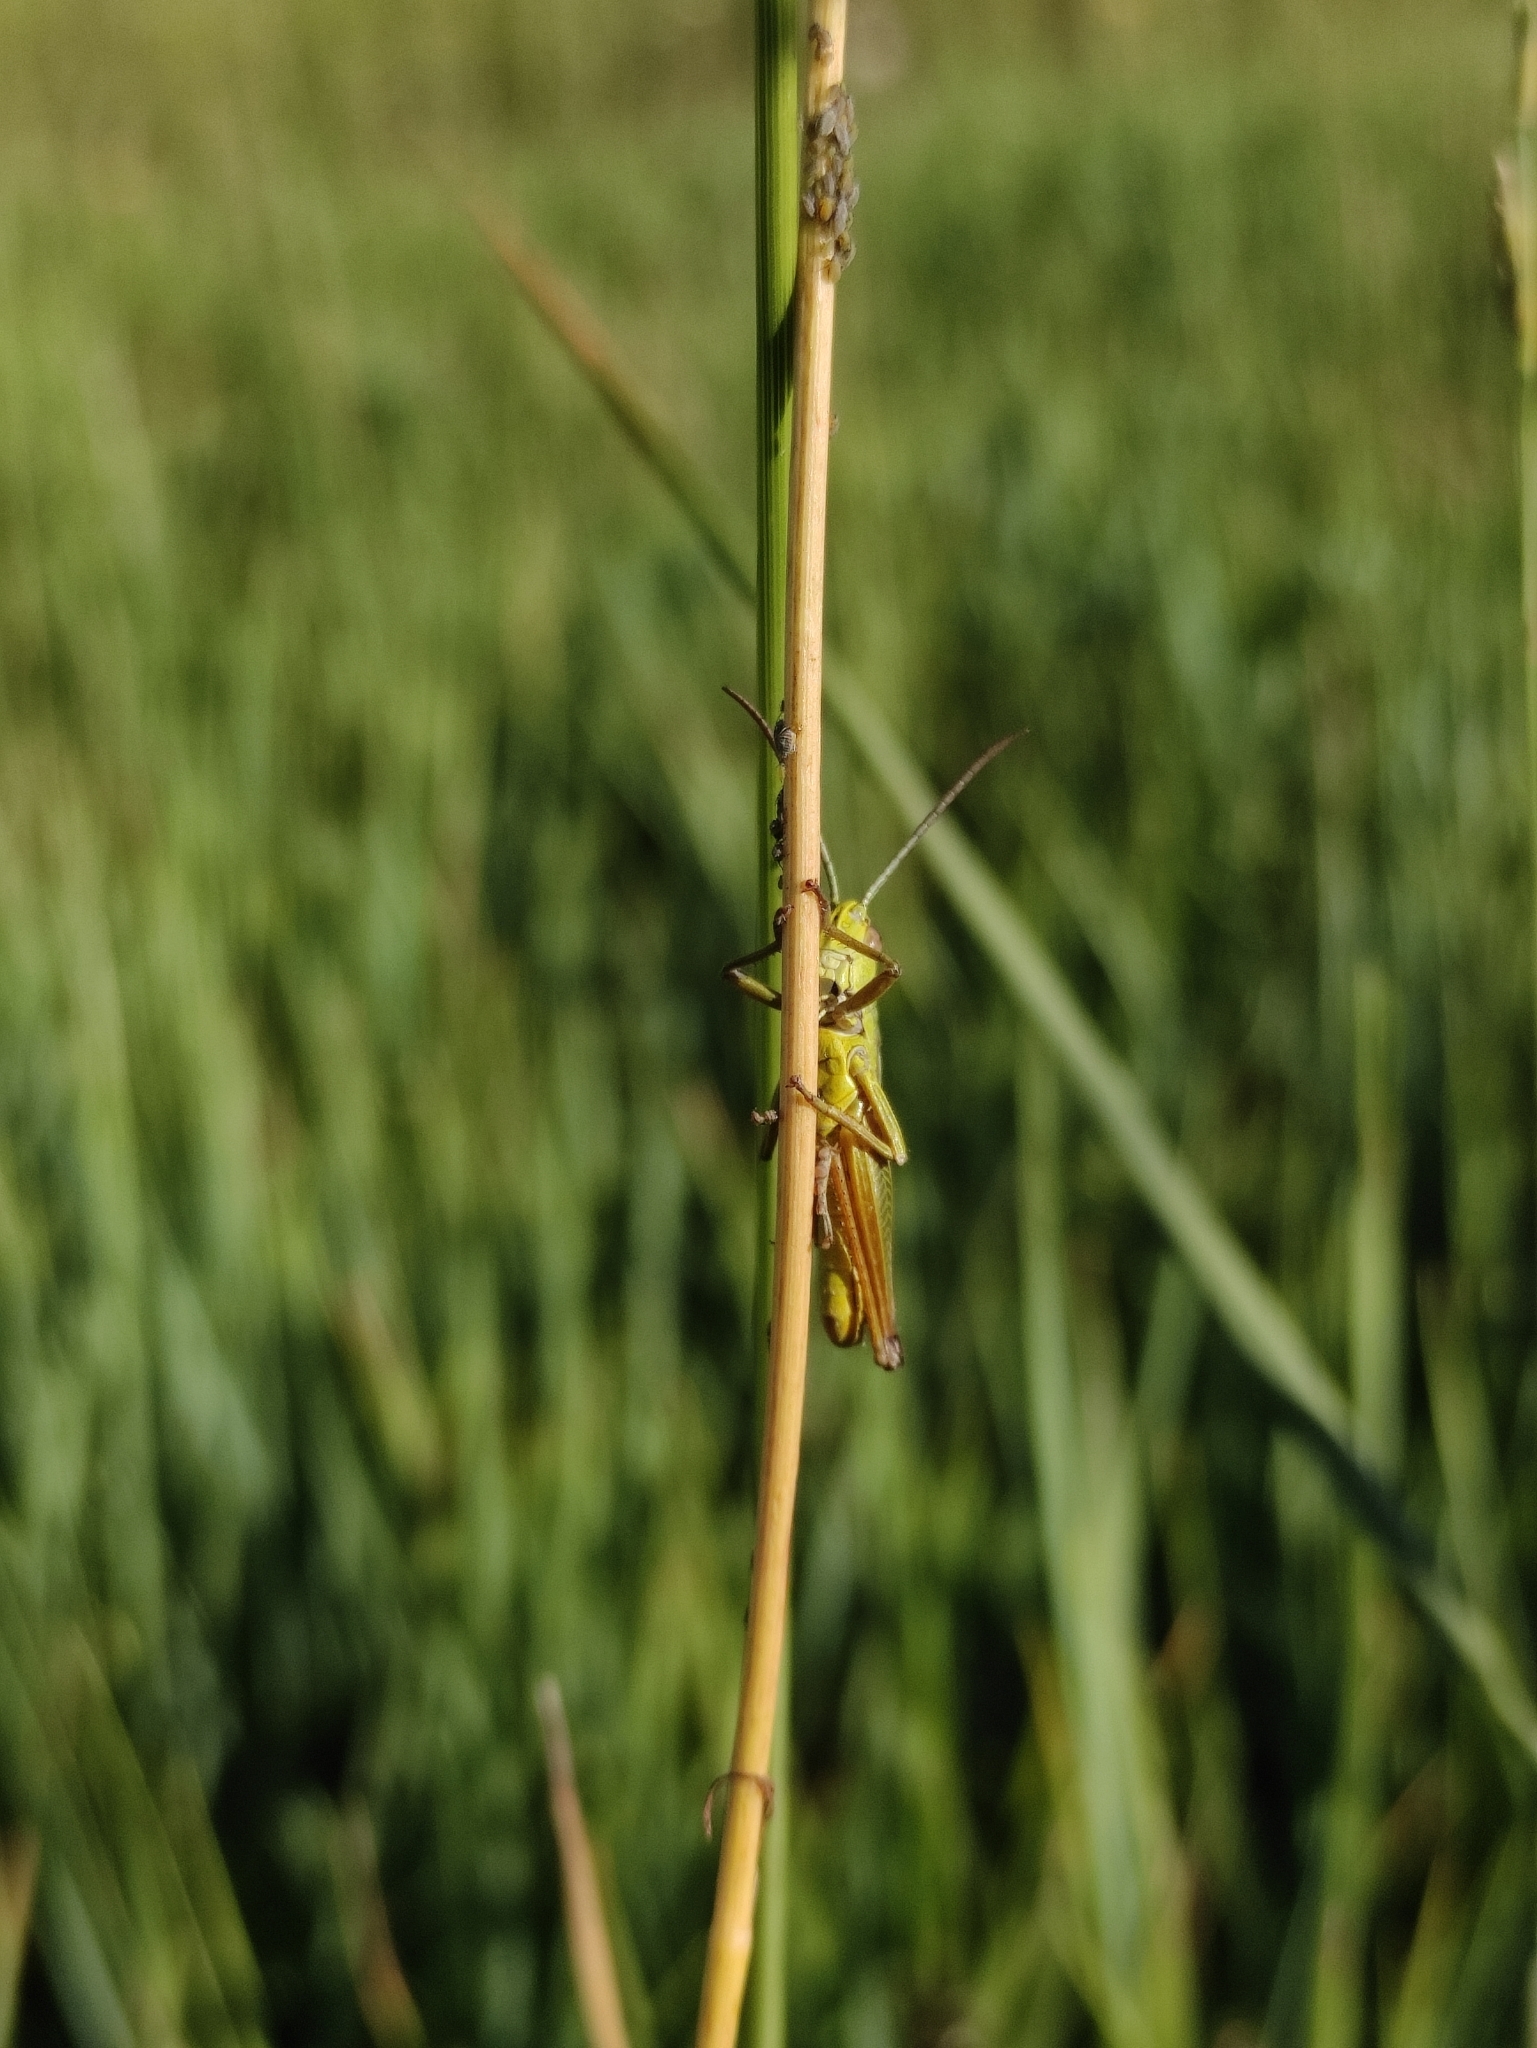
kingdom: Animalia
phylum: Arthropoda
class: Insecta
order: Orthoptera
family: Acrididae
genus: Pseudochorthippus
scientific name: Pseudochorthippus parallelus
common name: Meadow grasshopper
